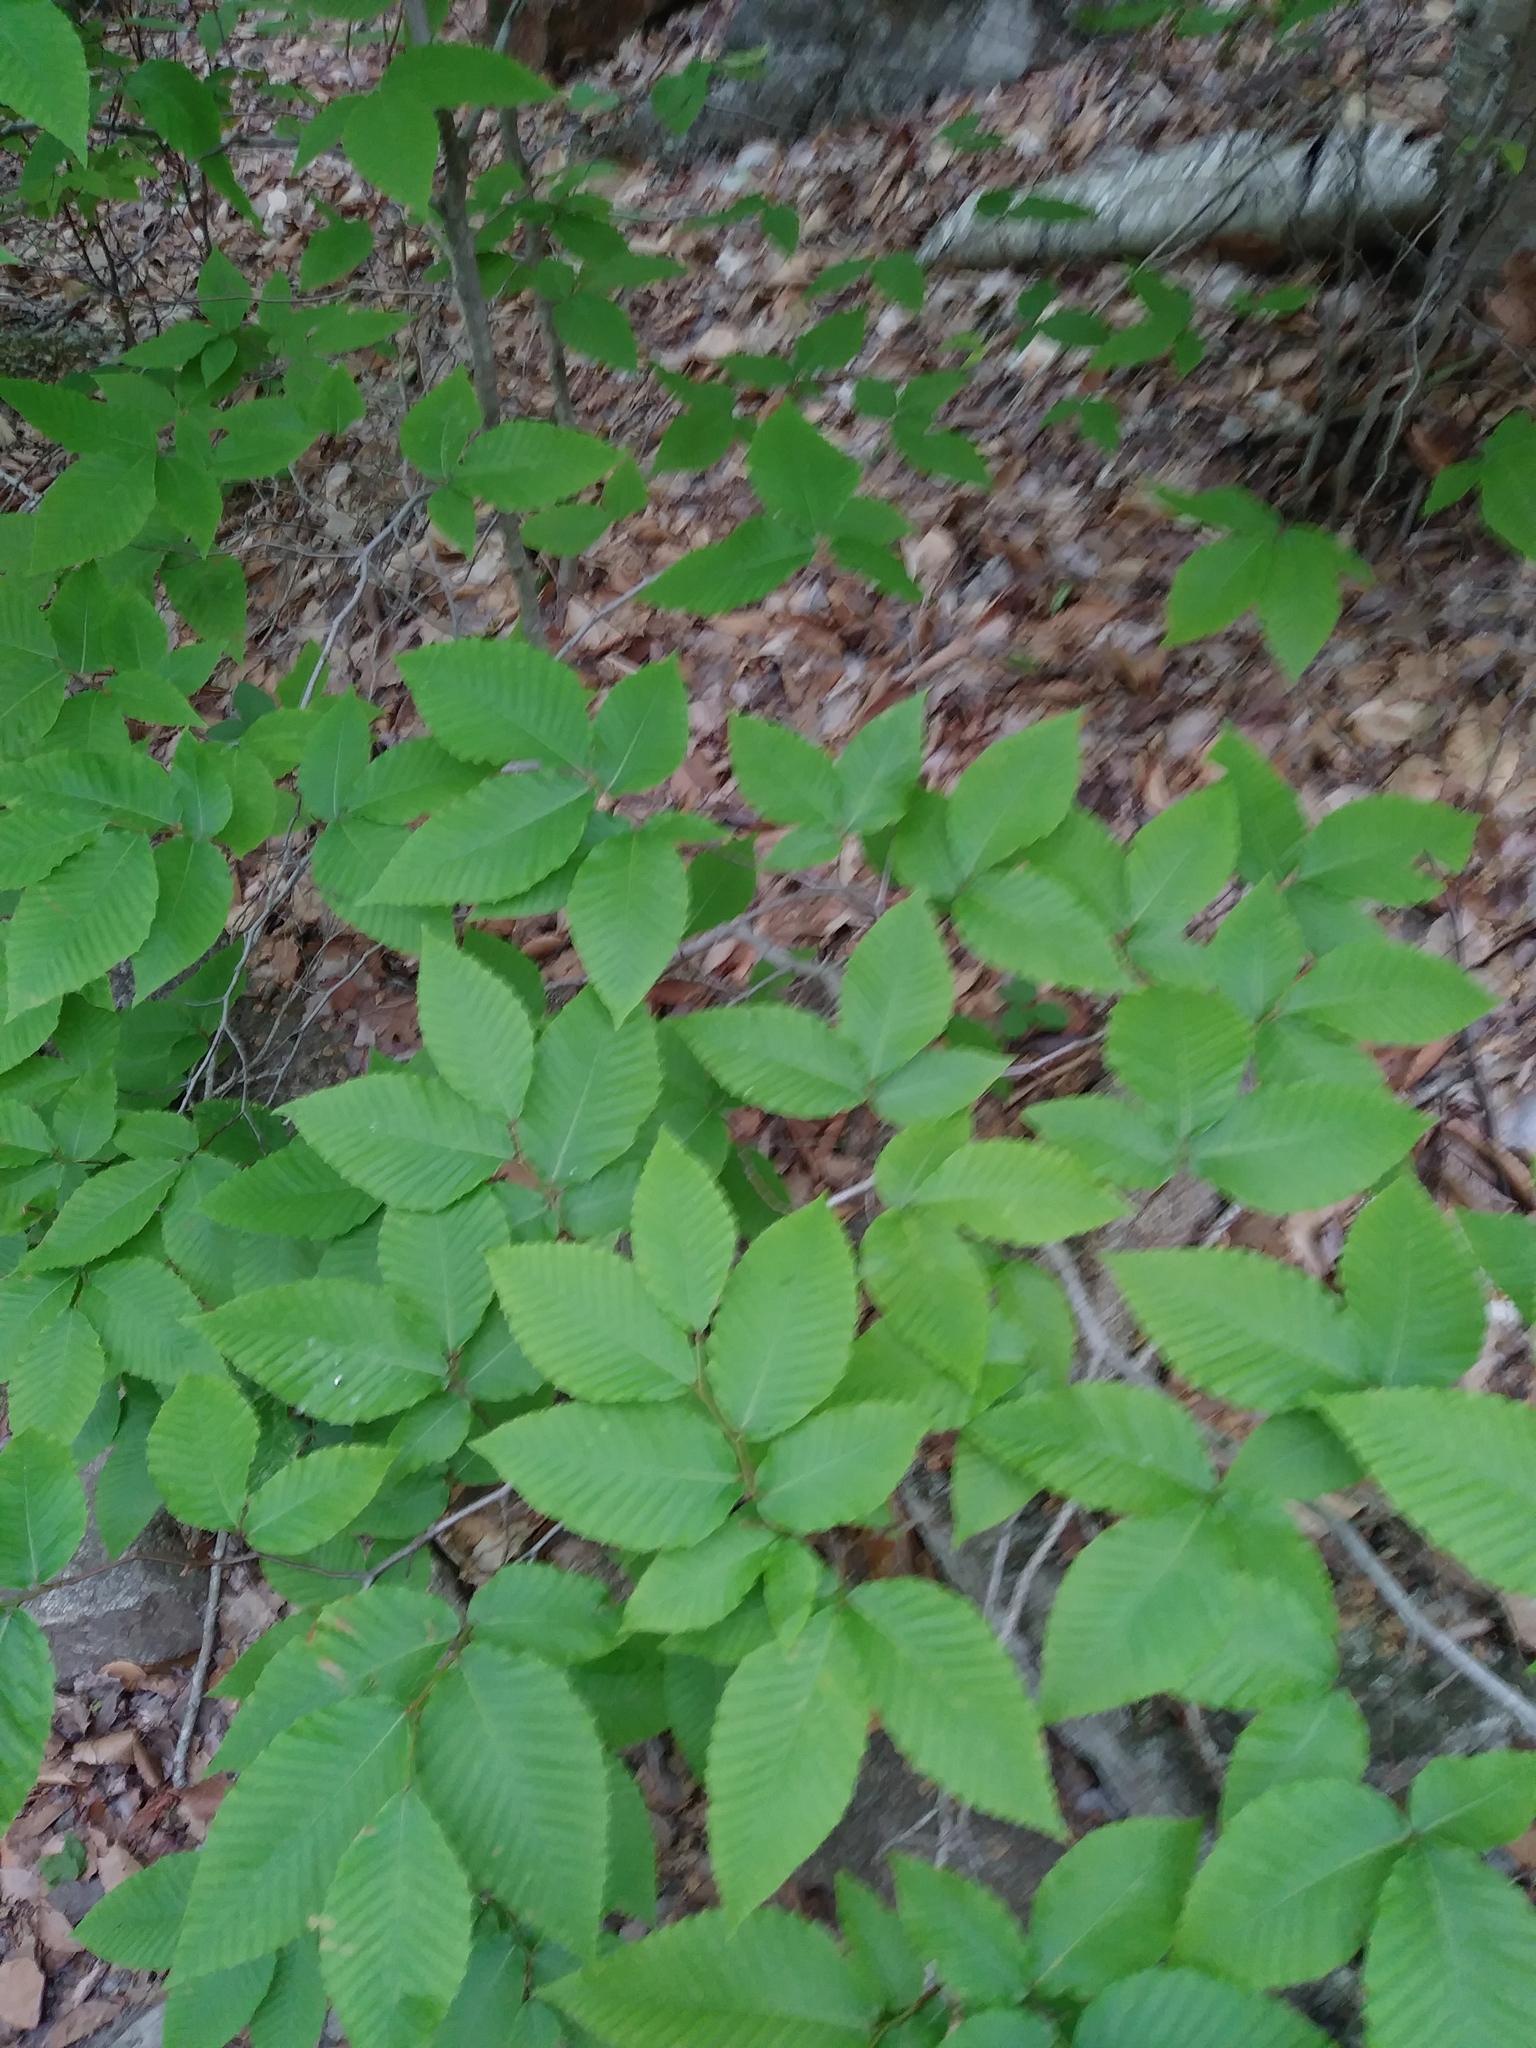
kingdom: Plantae
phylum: Tracheophyta
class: Magnoliopsida
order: Fagales
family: Fagaceae
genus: Fagus
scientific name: Fagus grandifolia
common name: American beech
